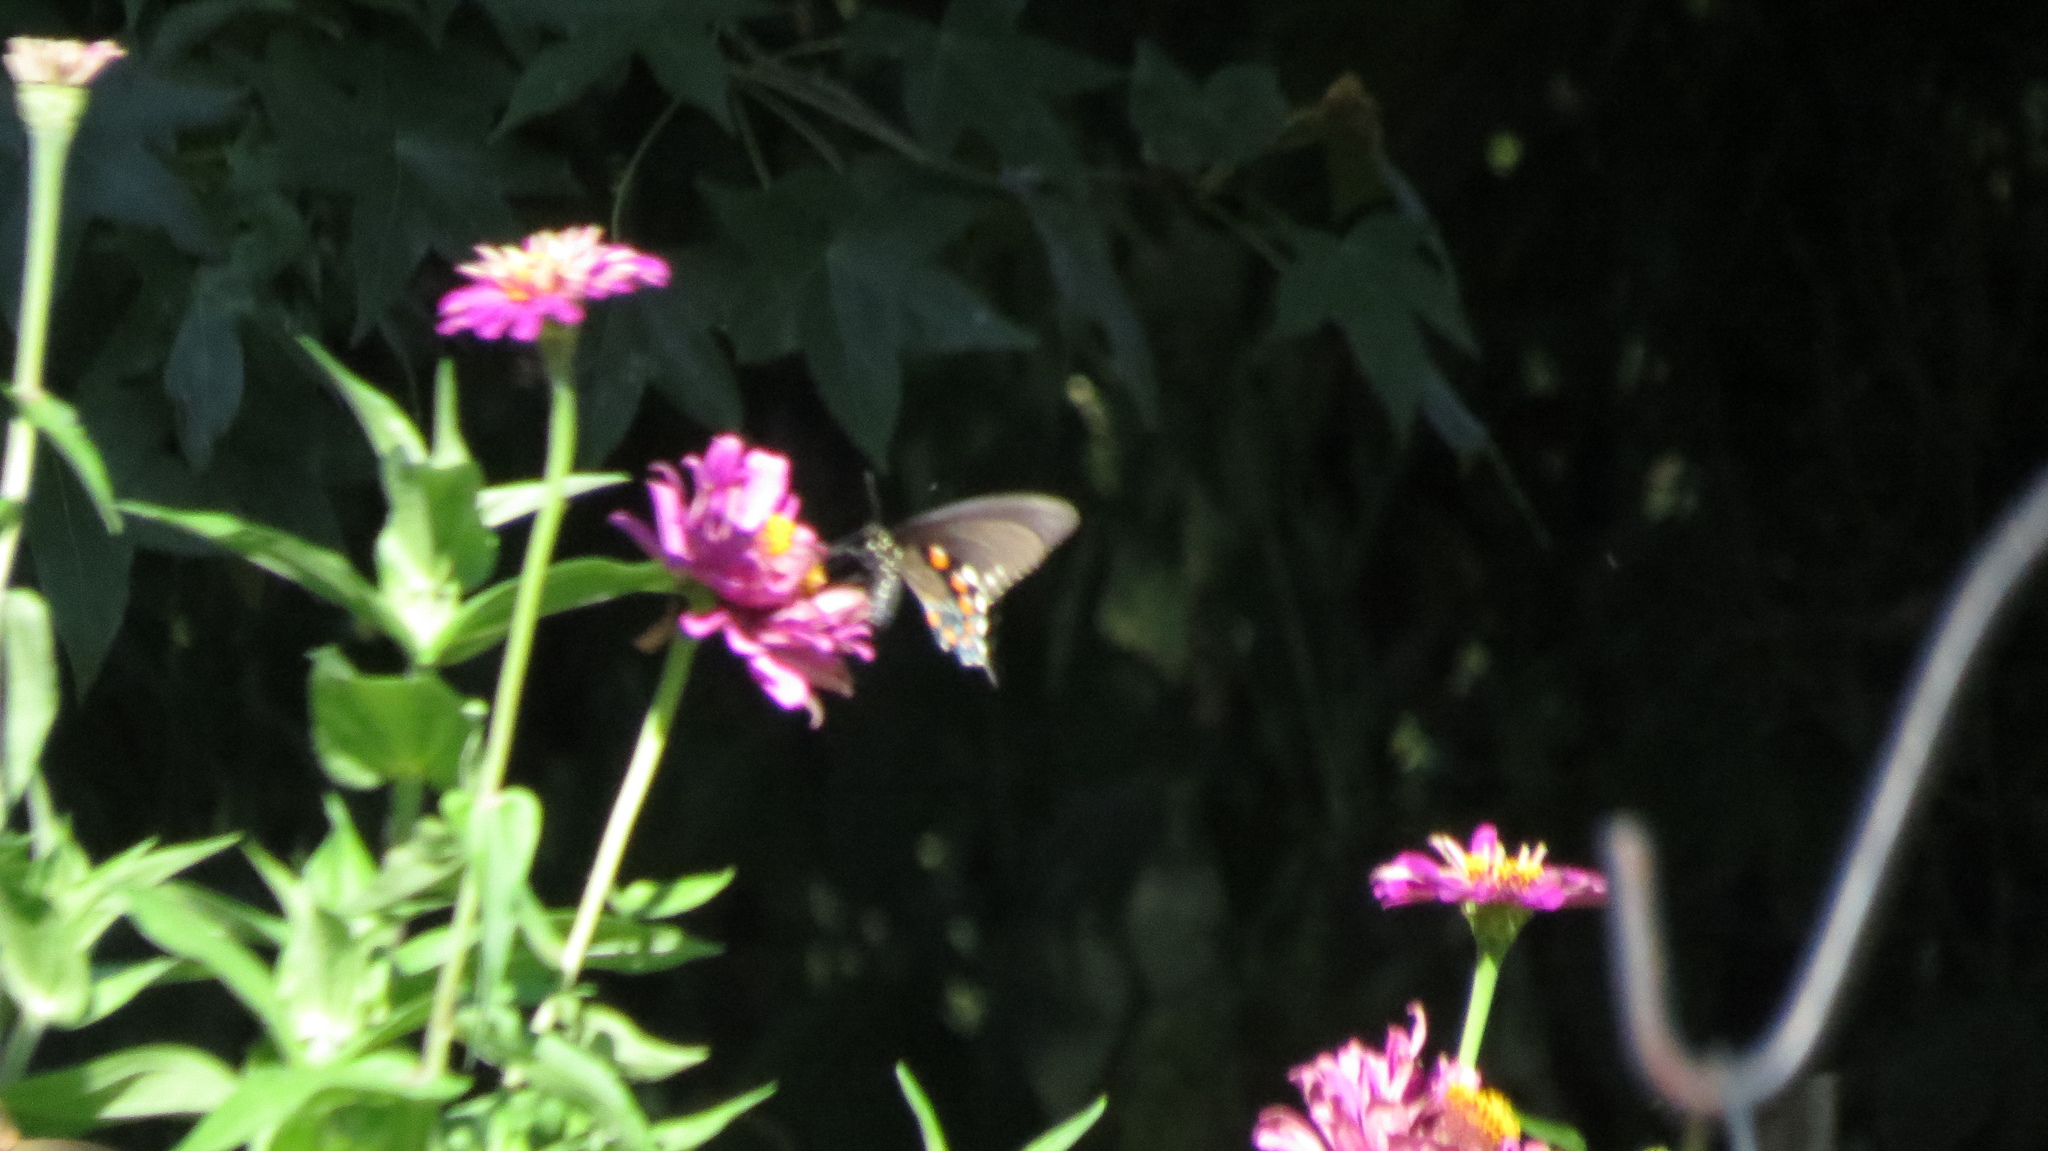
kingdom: Animalia
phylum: Arthropoda
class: Insecta
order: Lepidoptera
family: Papilionidae
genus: Battus
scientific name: Battus philenor
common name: Pipevine swallowtail
